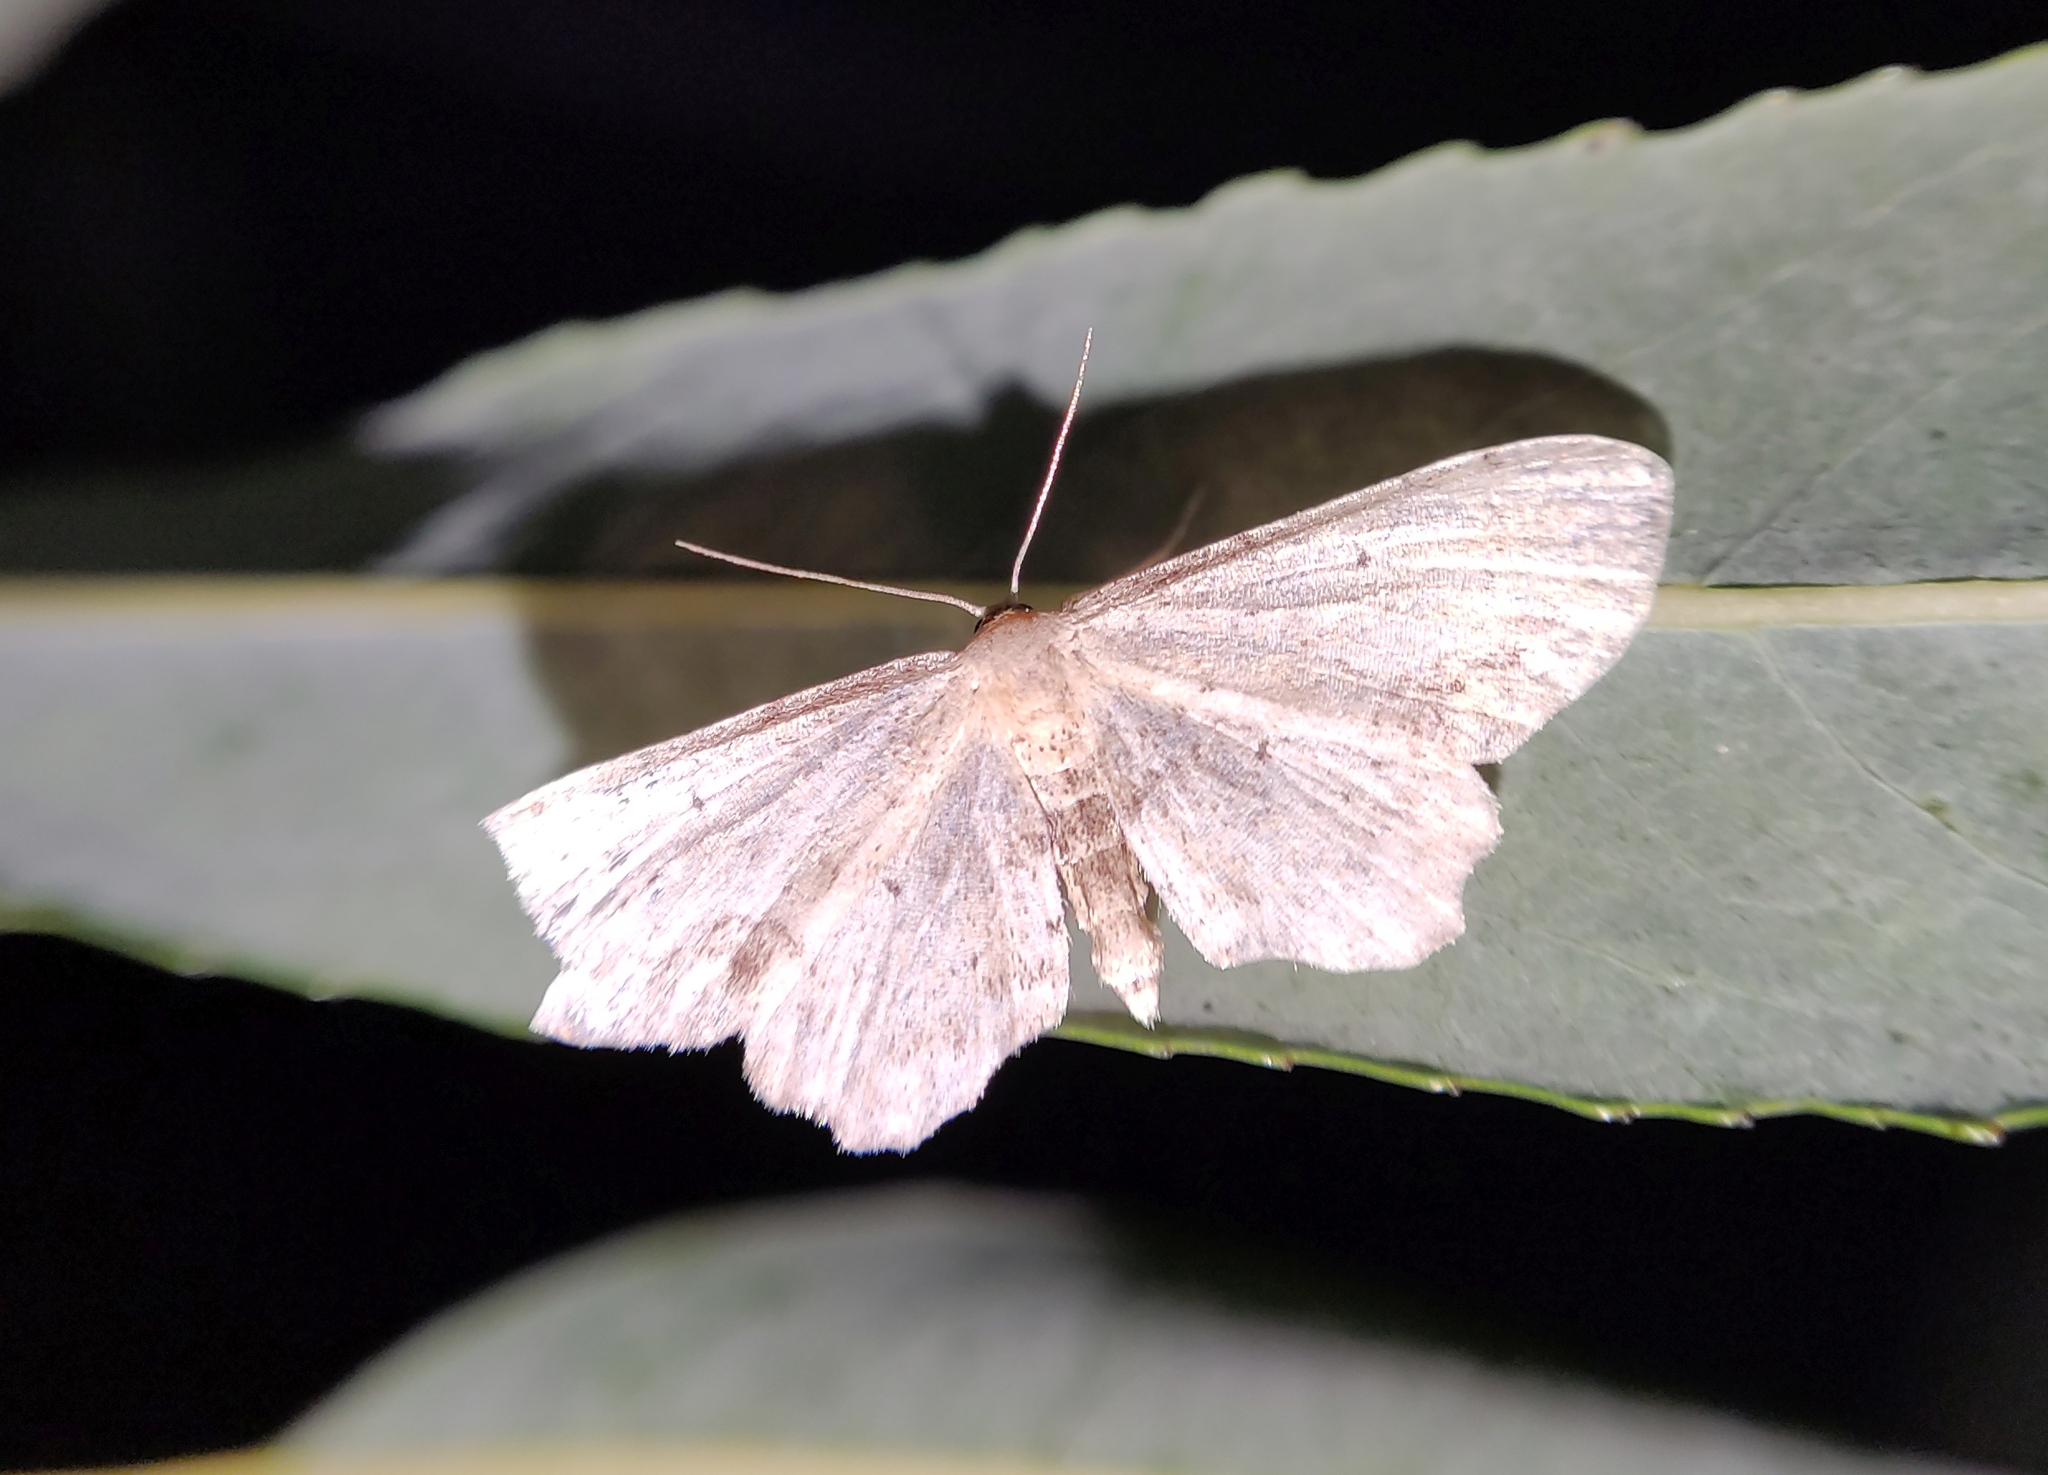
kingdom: Animalia
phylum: Arthropoda
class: Insecta
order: Lepidoptera
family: Geometridae
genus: Idaea
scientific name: Idaea dimidiata
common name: Single-dotted wave
